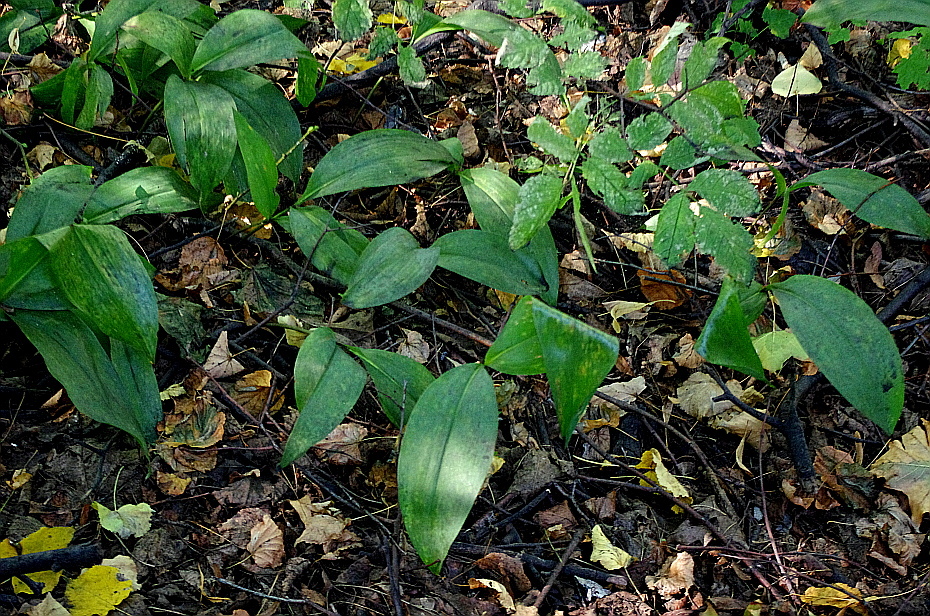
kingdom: Plantae
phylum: Tracheophyta
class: Liliopsida
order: Asparagales
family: Asparagaceae
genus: Convallaria
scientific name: Convallaria majalis
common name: Lily-of-the-valley
